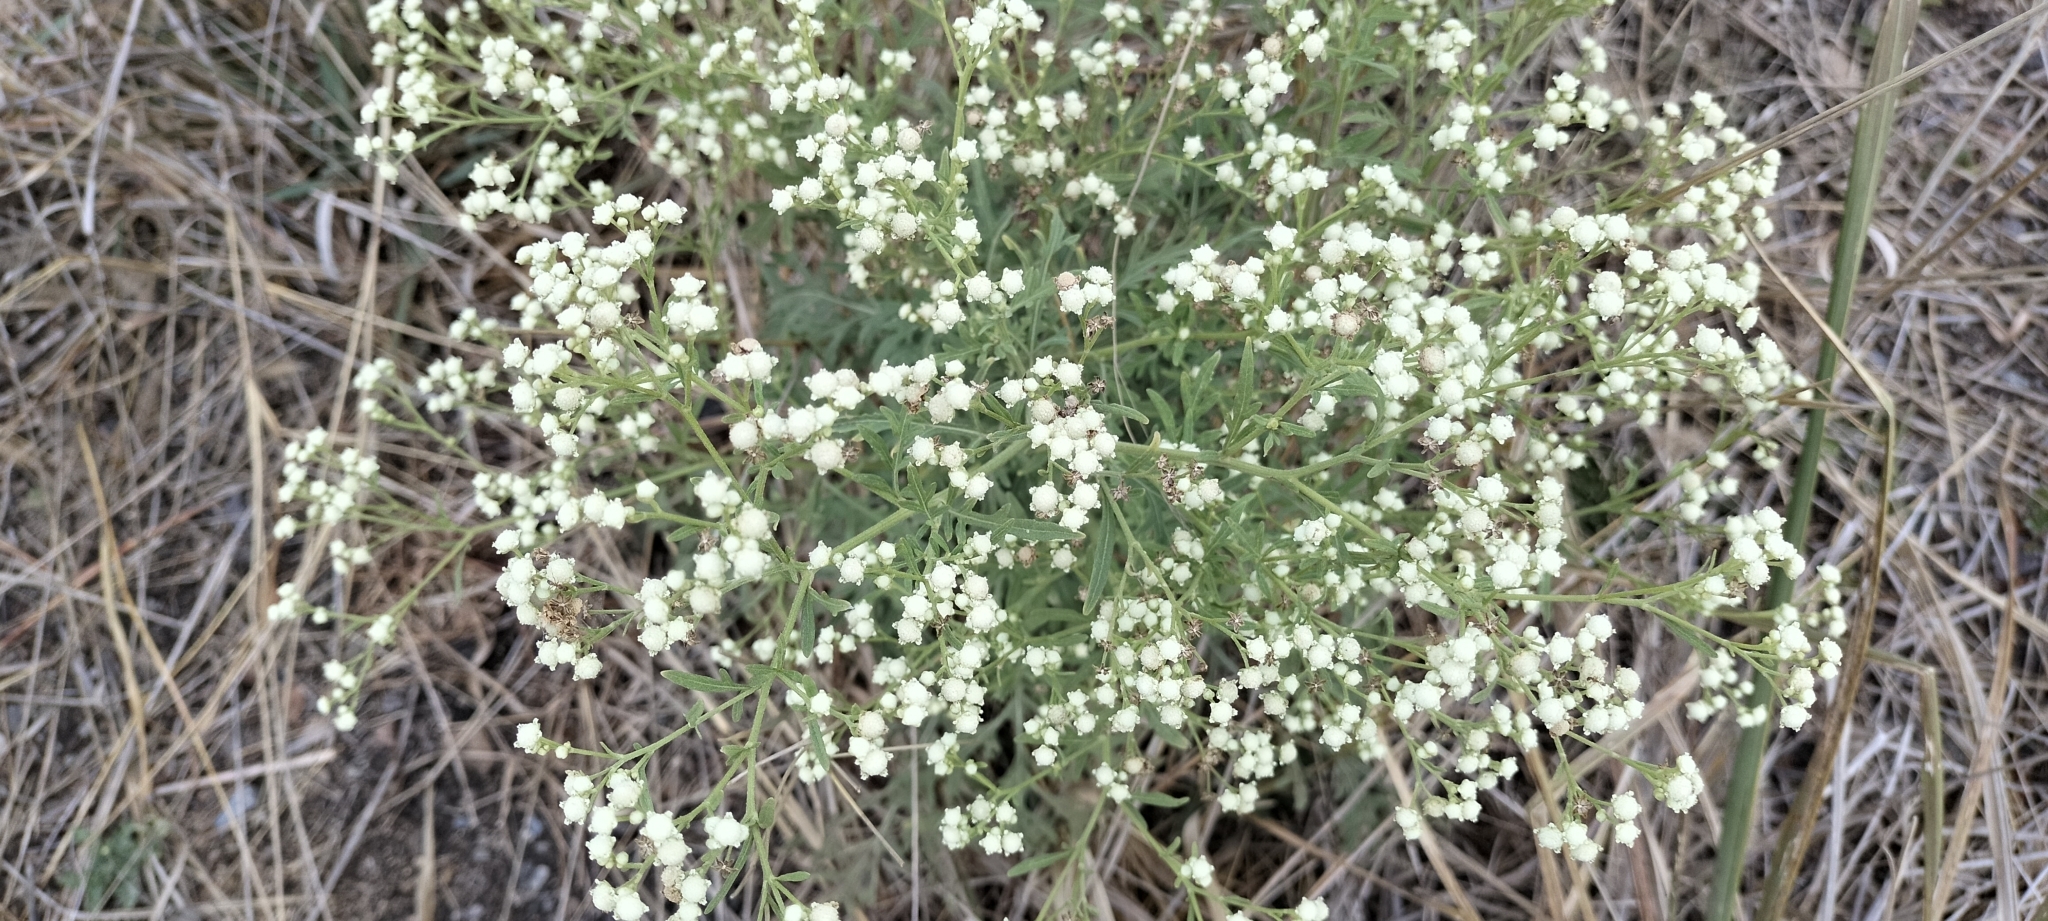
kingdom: Plantae
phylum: Tracheophyta
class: Magnoliopsida
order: Asterales
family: Asteraceae
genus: Parthenium
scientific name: Parthenium hysterophorus
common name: Santa maria feverfew
